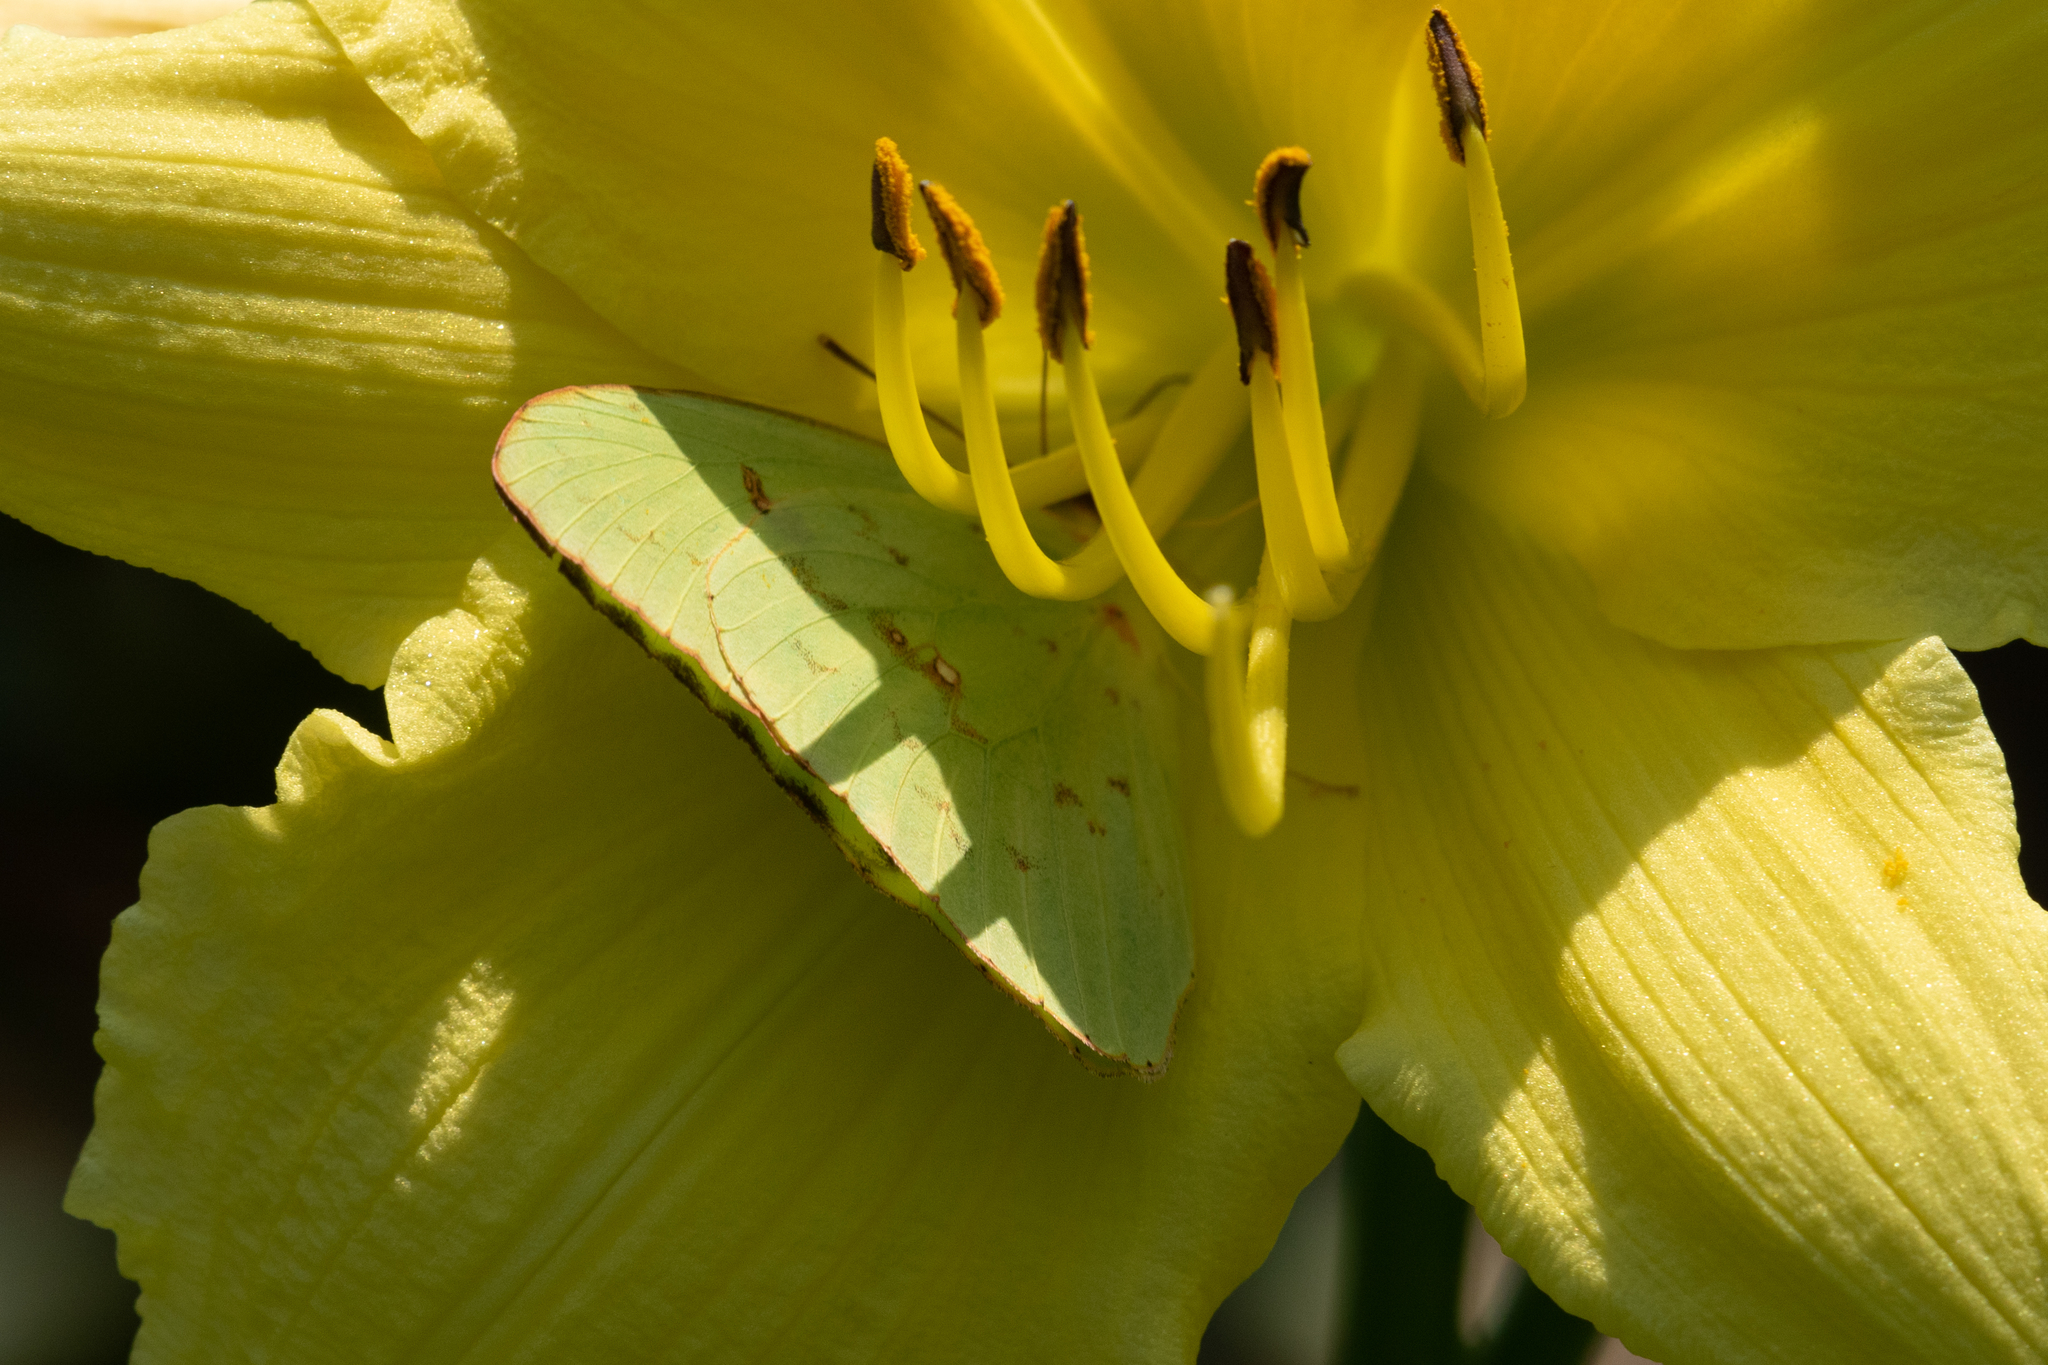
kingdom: Animalia
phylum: Arthropoda
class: Insecta
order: Lepidoptera
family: Pieridae
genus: Phoebis
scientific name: Phoebis sennae
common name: Cloudless sulphur
